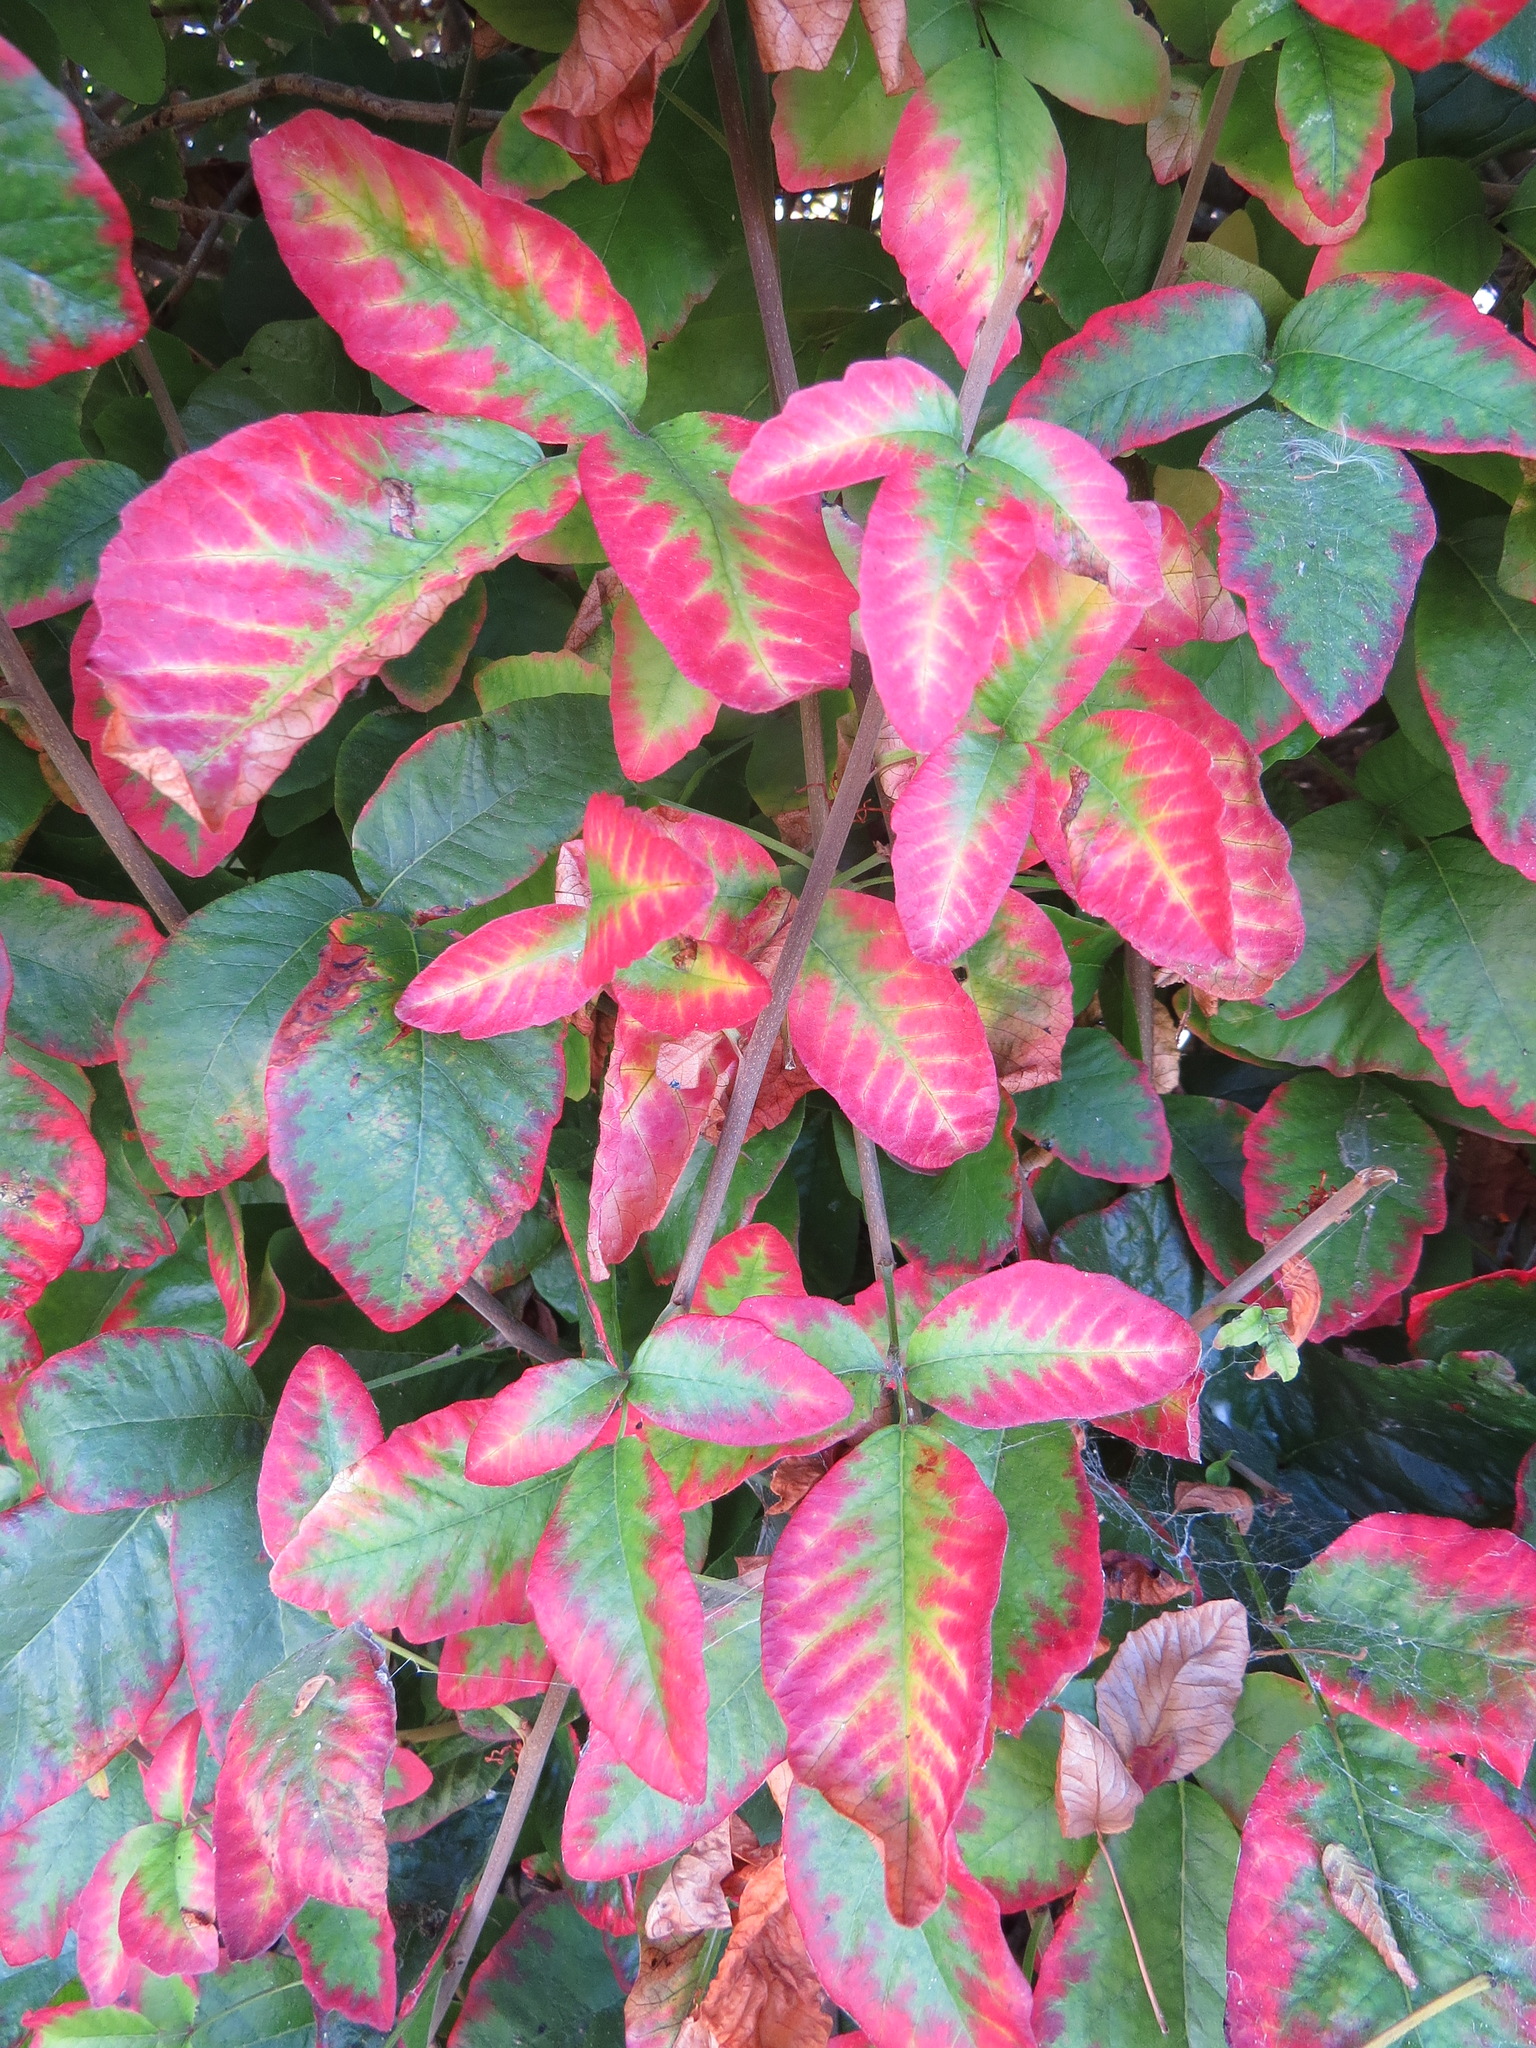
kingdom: Plantae
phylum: Tracheophyta
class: Magnoliopsida
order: Sapindales
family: Anacardiaceae
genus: Toxicodendron
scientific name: Toxicodendron diversilobum
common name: Pacific poison-oak
